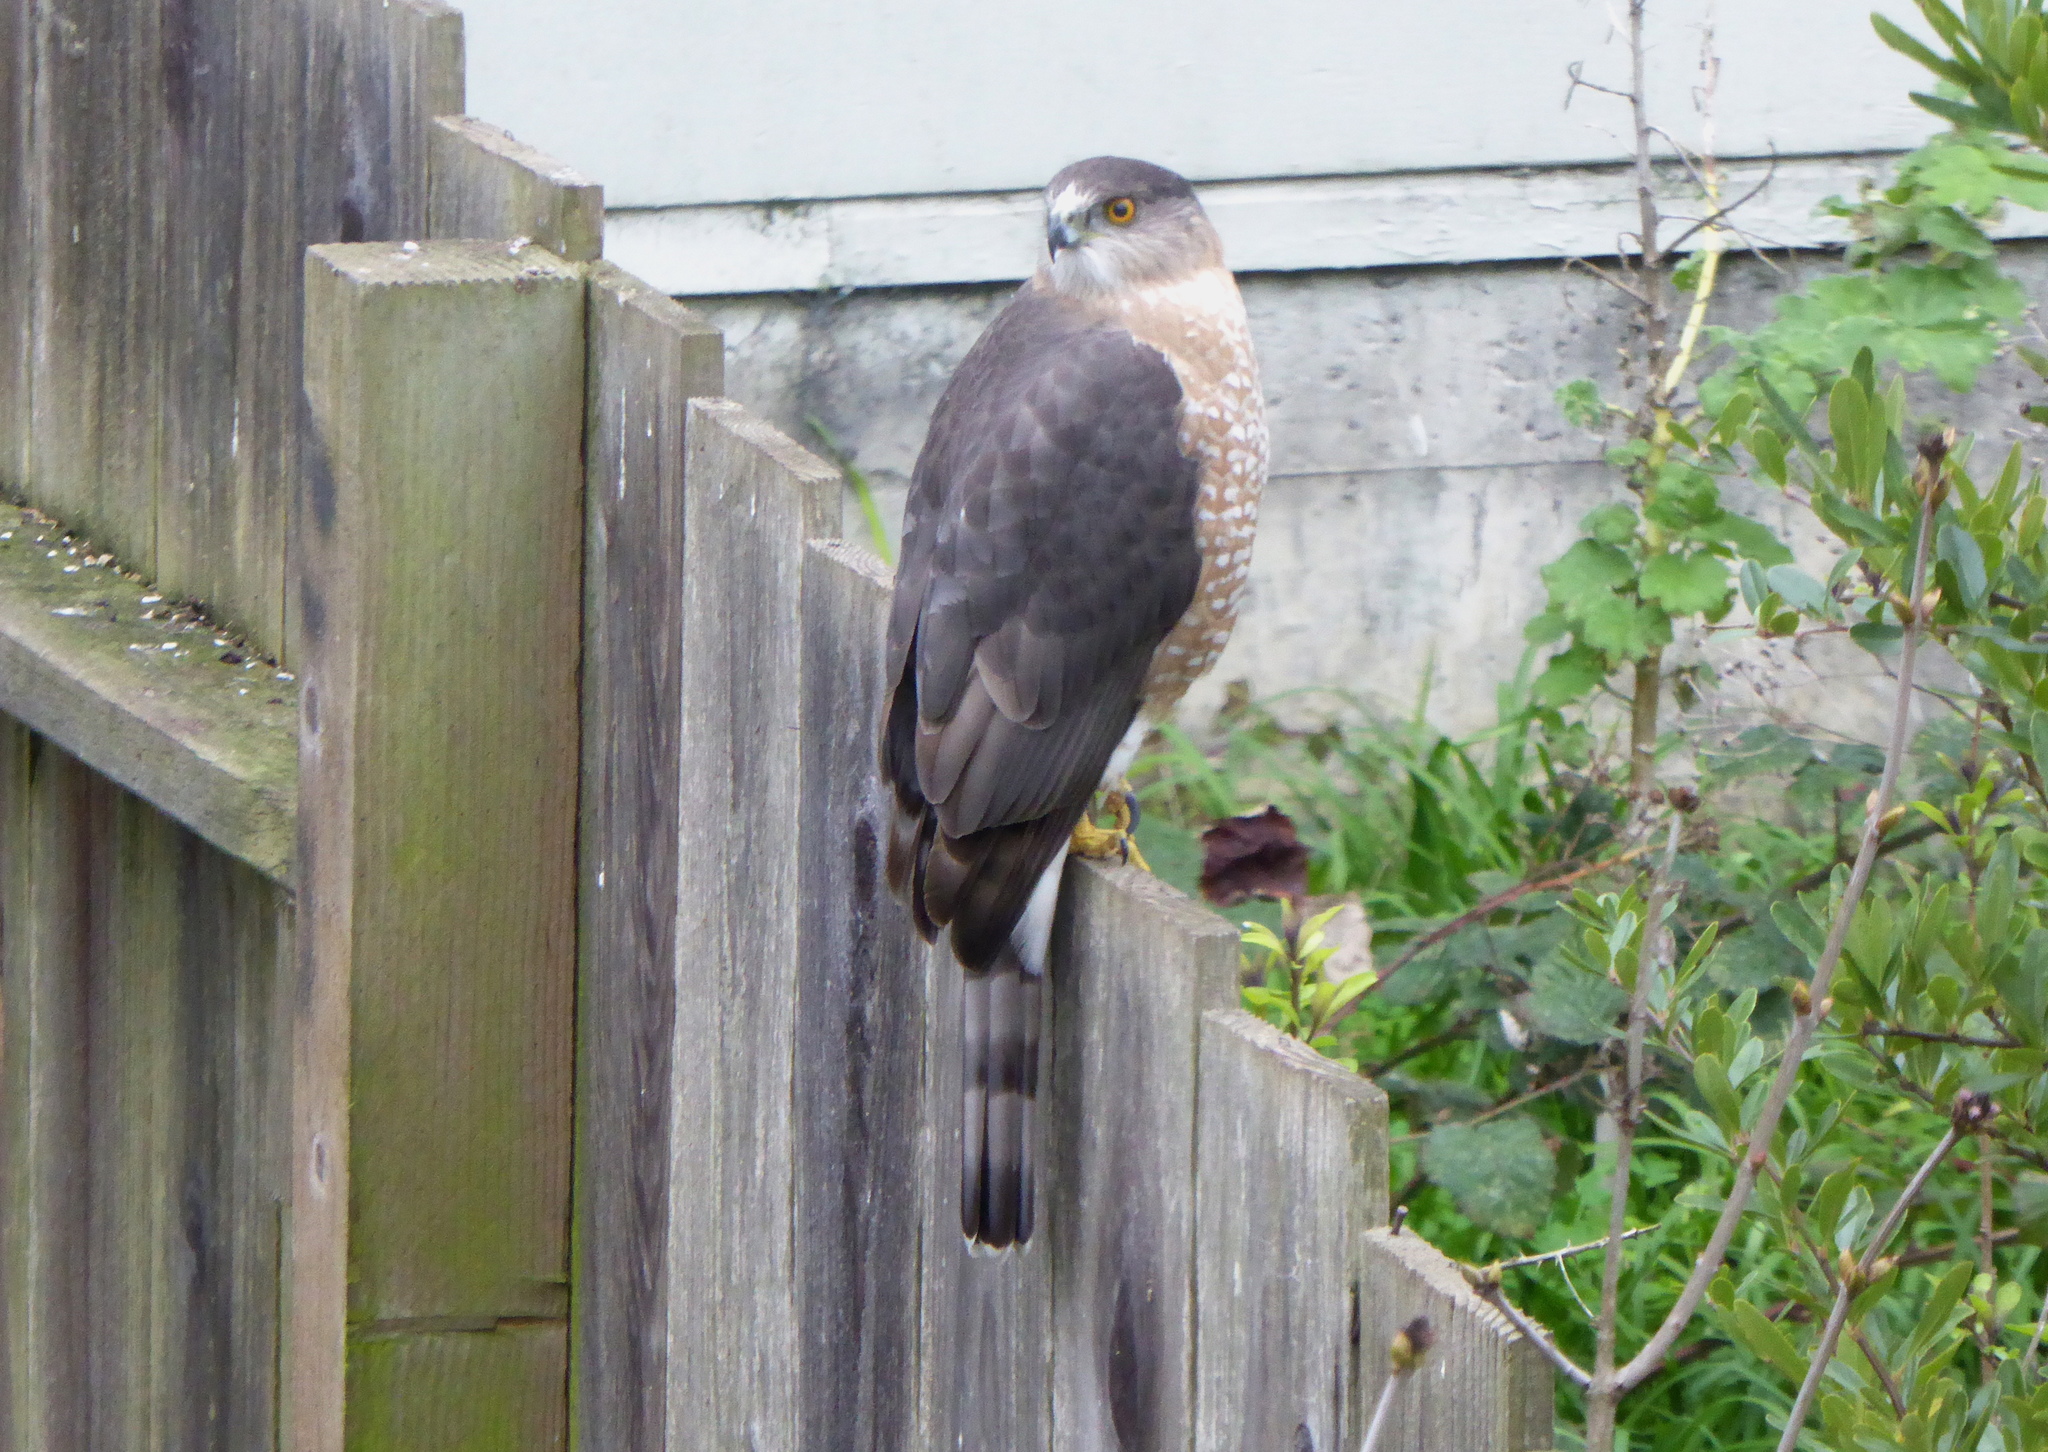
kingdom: Animalia
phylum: Chordata
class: Aves
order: Accipitriformes
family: Accipitridae
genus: Accipiter
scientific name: Accipiter cooperii
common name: Cooper's hawk
